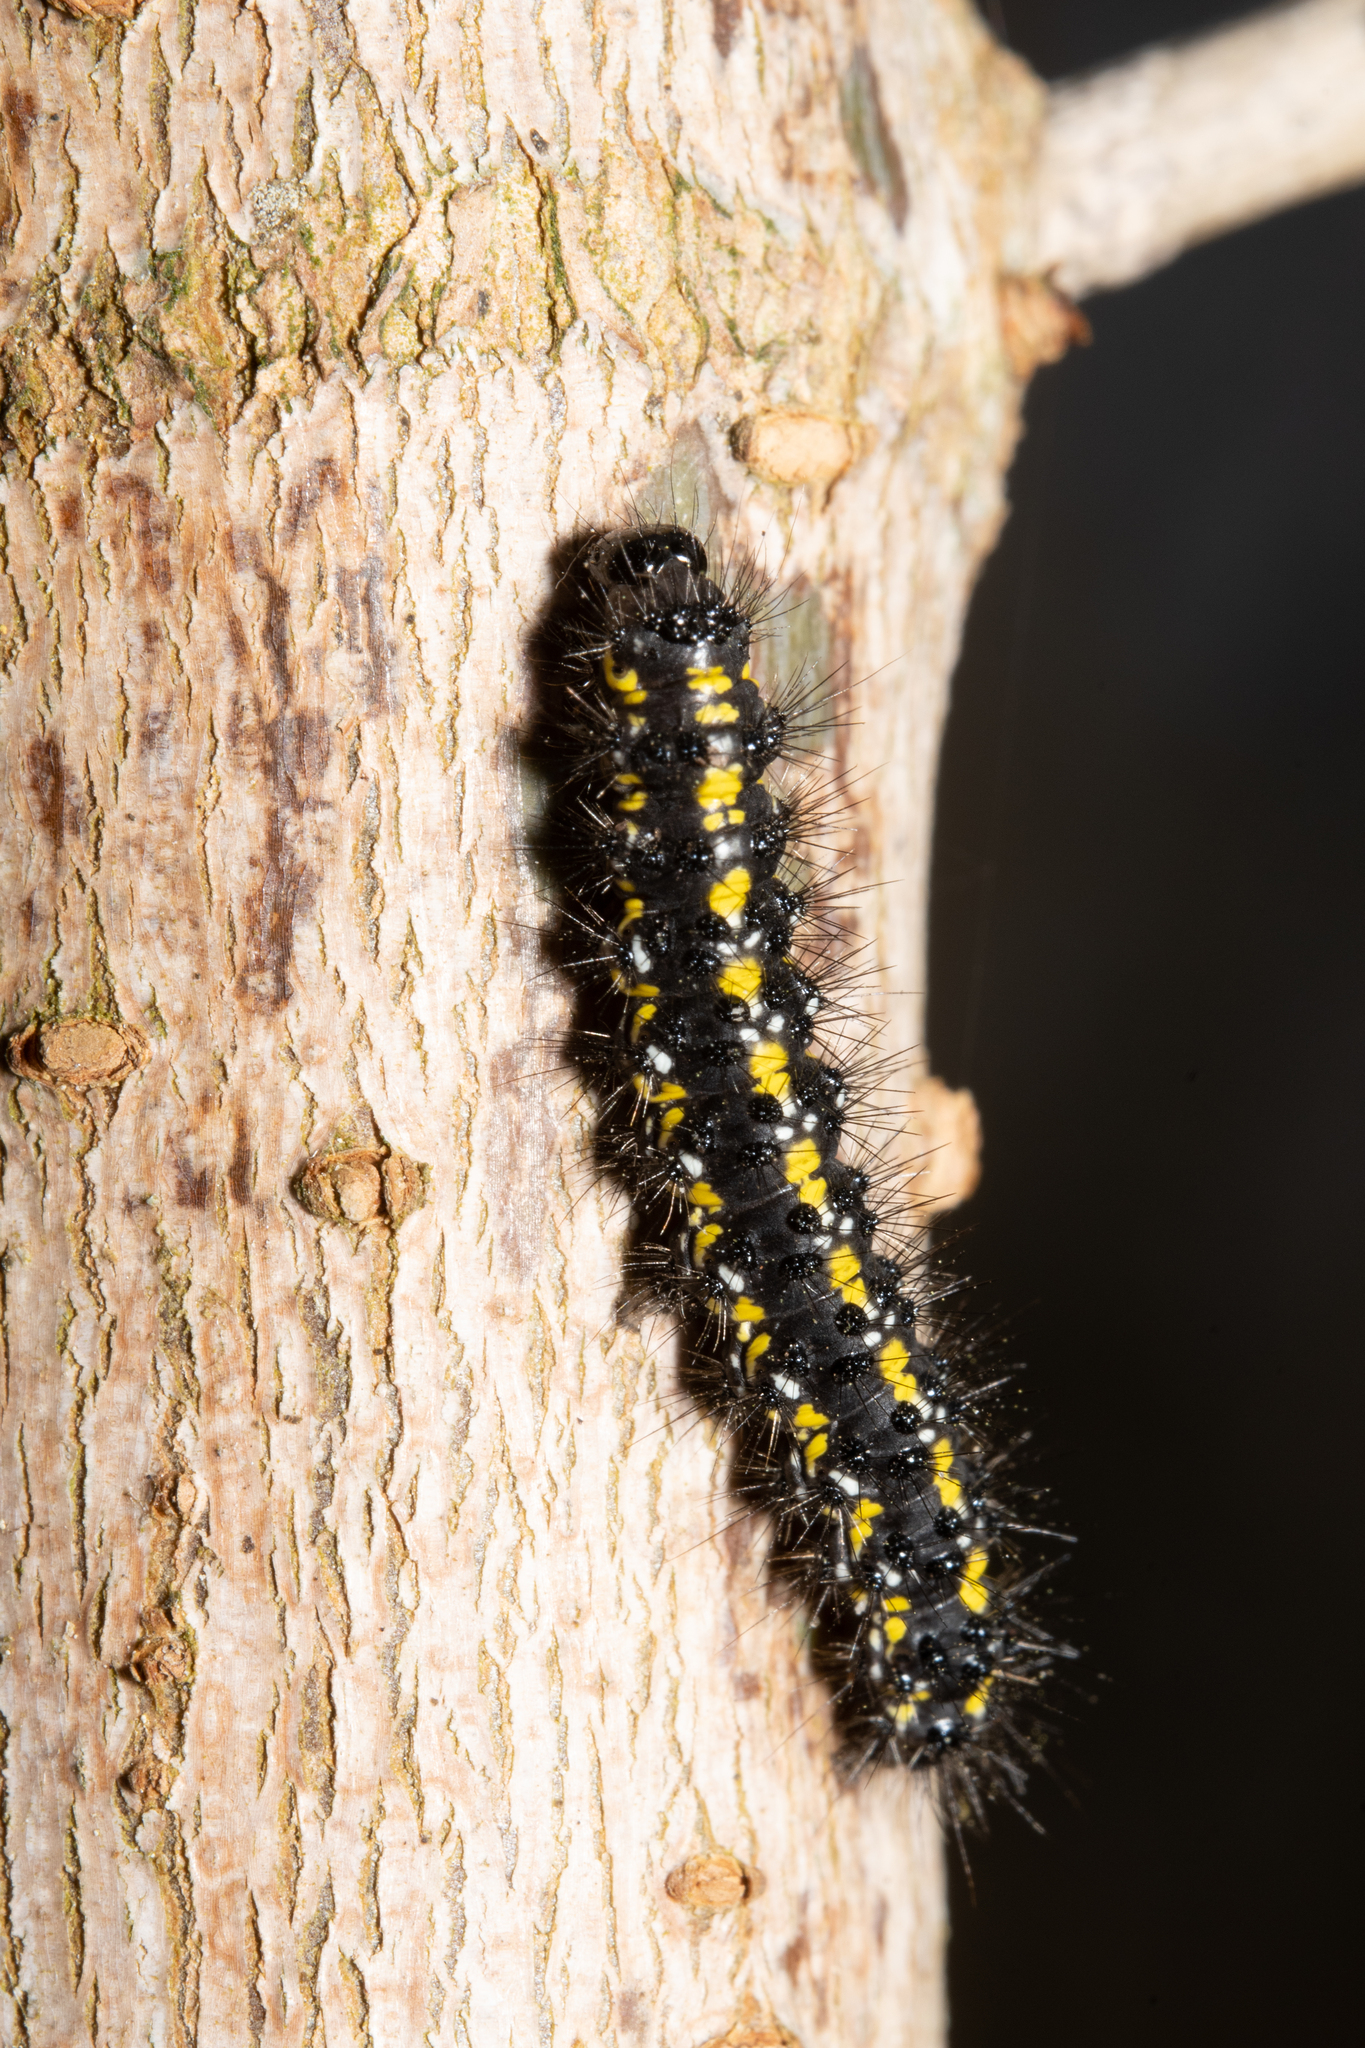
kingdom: Animalia
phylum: Arthropoda
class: Insecta
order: Lepidoptera
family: Erebidae
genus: Callimorpha
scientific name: Callimorpha dominula
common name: Scarlet tiger
